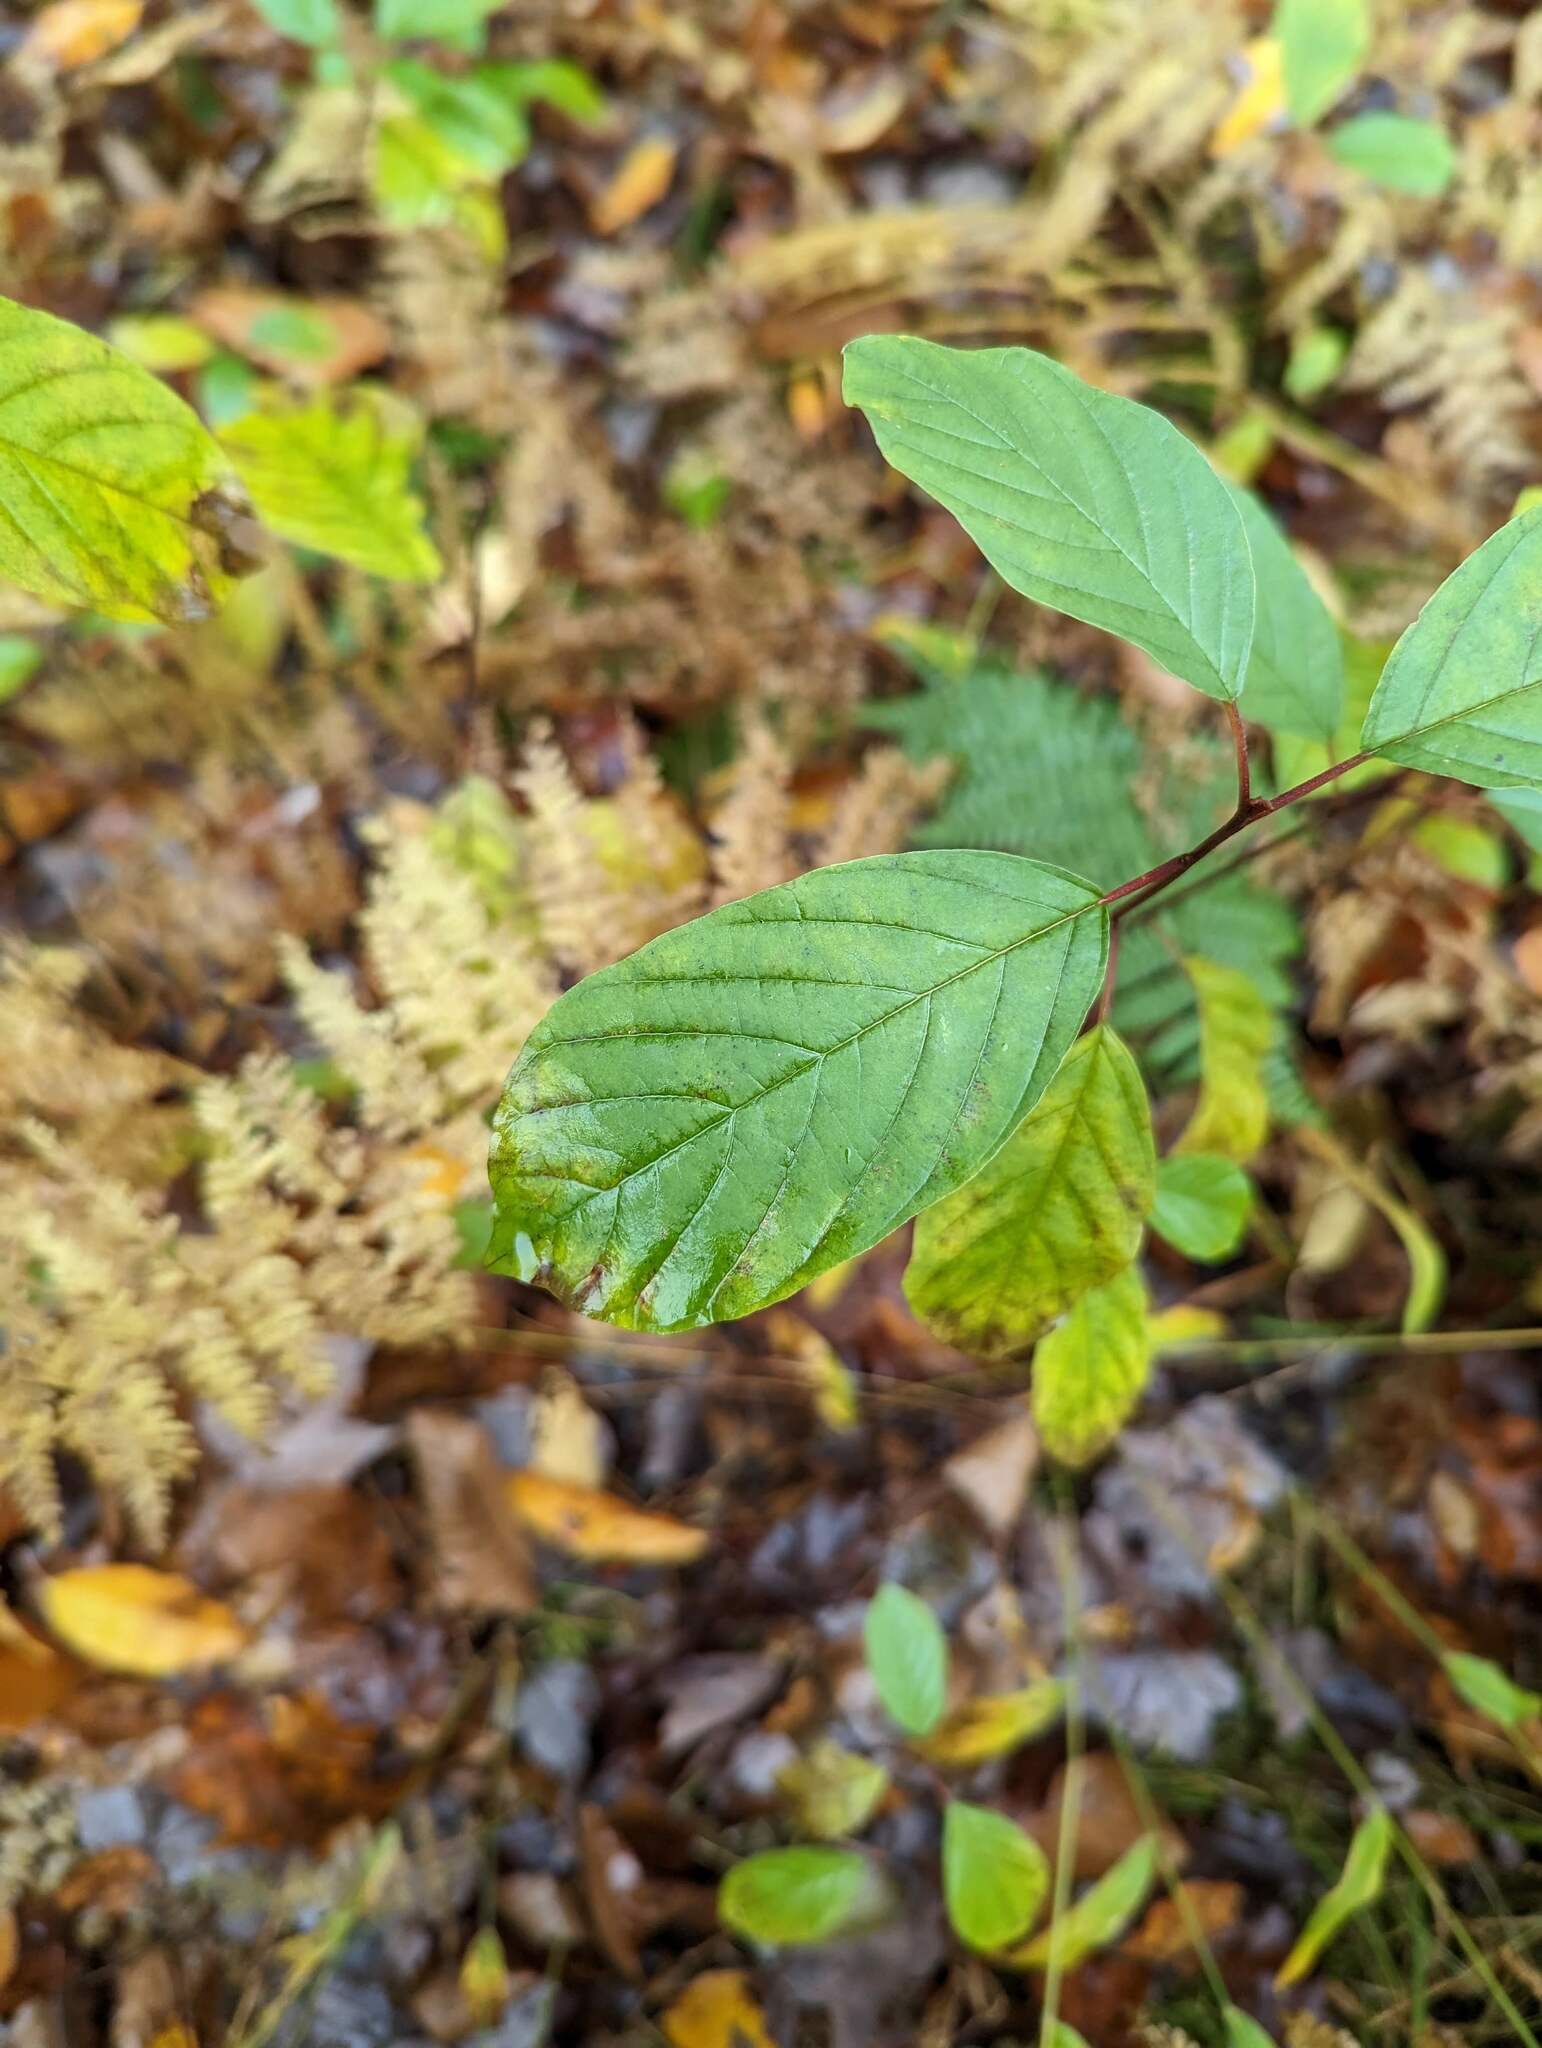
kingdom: Plantae
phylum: Tracheophyta
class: Magnoliopsida
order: Rosales
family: Rhamnaceae
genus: Frangula
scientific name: Frangula alnus
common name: Alder buckthorn
